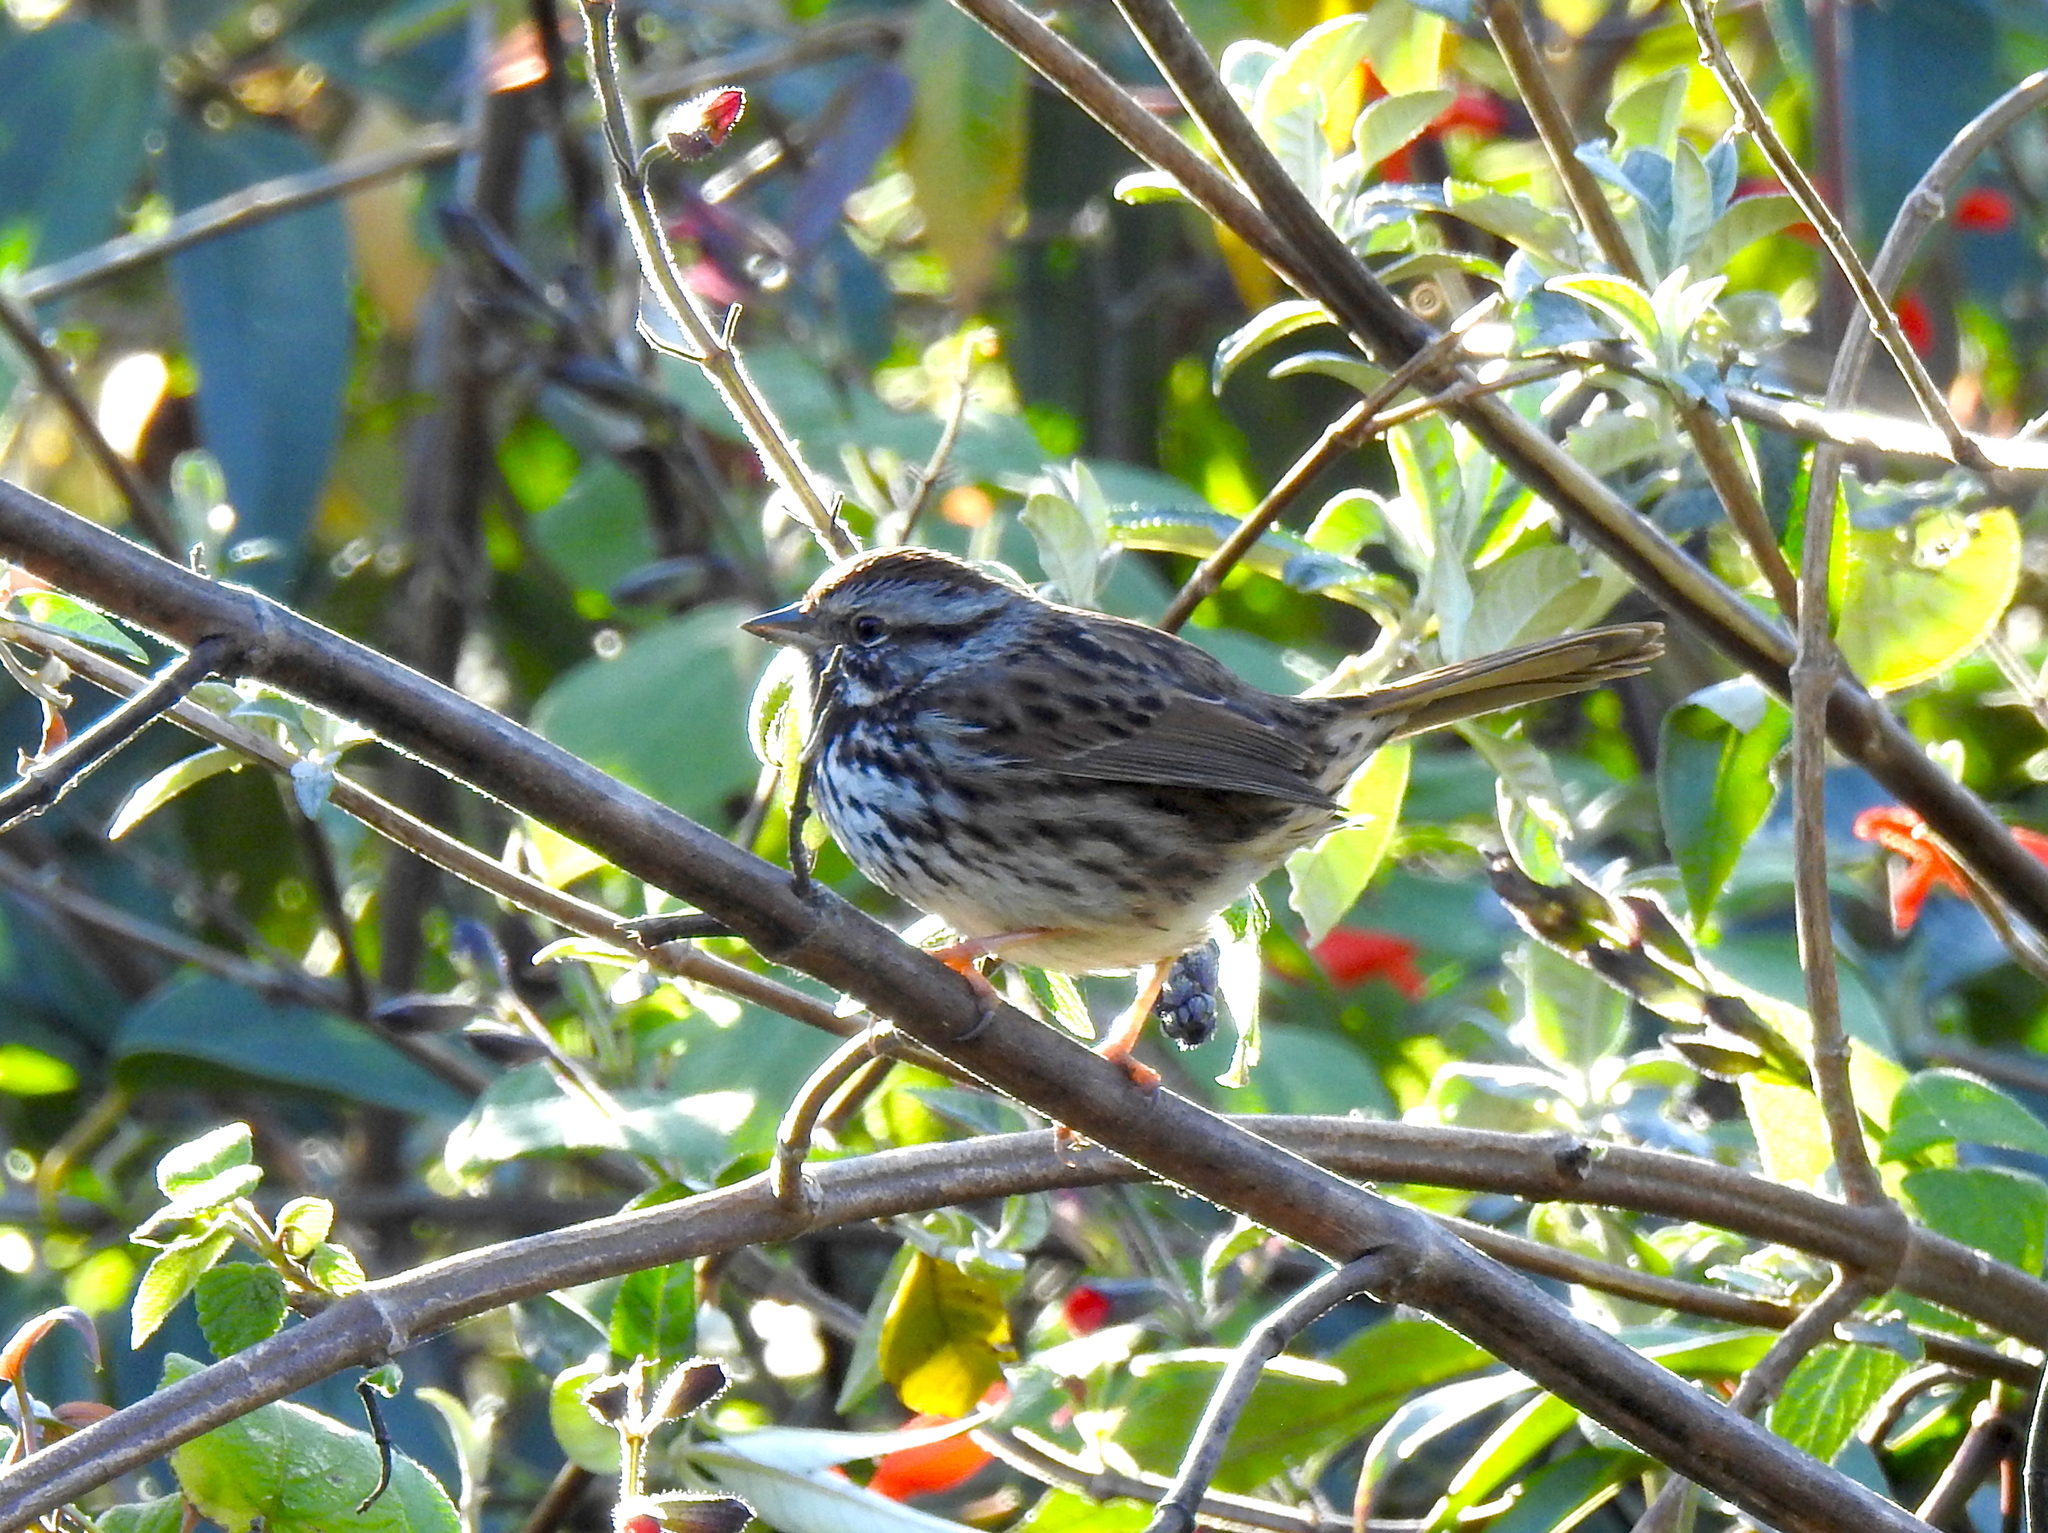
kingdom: Animalia
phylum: Chordata
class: Aves
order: Passeriformes
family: Passerellidae
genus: Melospiza
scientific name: Melospiza melodia
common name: Song sparrow
